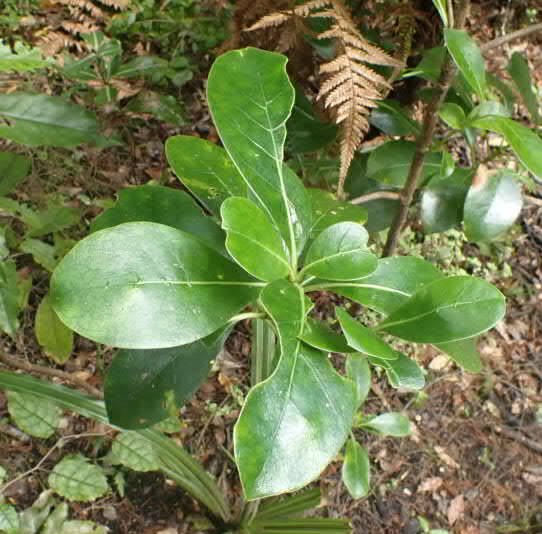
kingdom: Plantae
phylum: Tracheophyta
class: Magnoliopsida
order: Gentianales
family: Rubiaceae
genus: Coprosma
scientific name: Coprosma lucida
